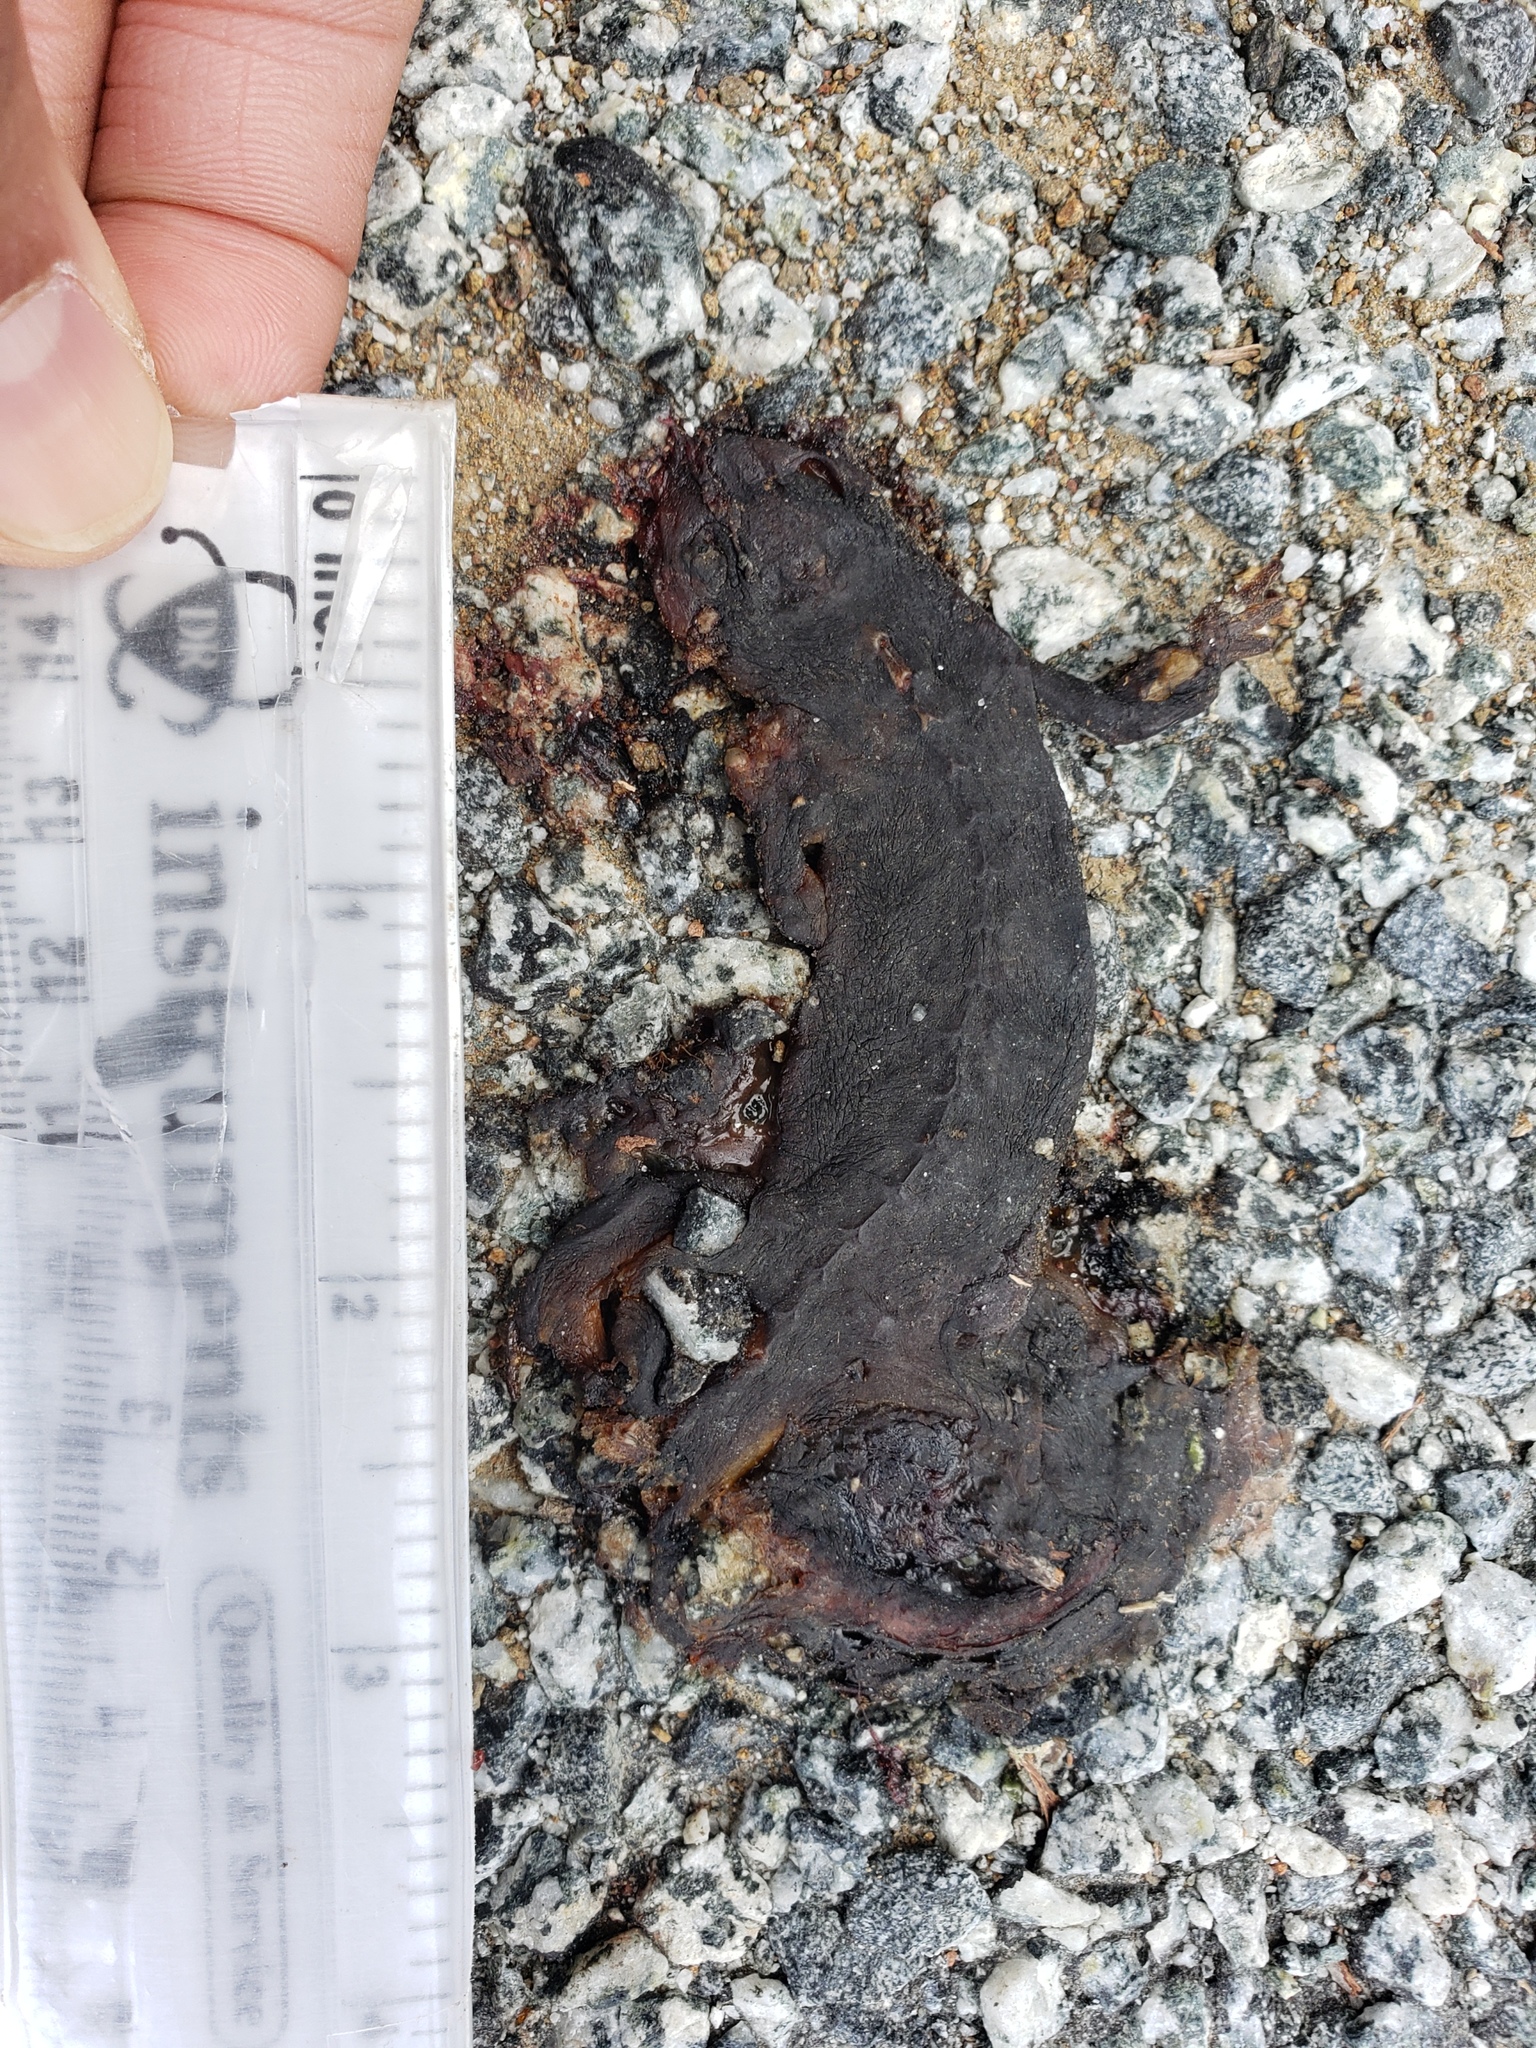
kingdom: Animalia
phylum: Chordata
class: Amphibia
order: Caudata
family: Salamandridae
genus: Taricha
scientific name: Taricha
